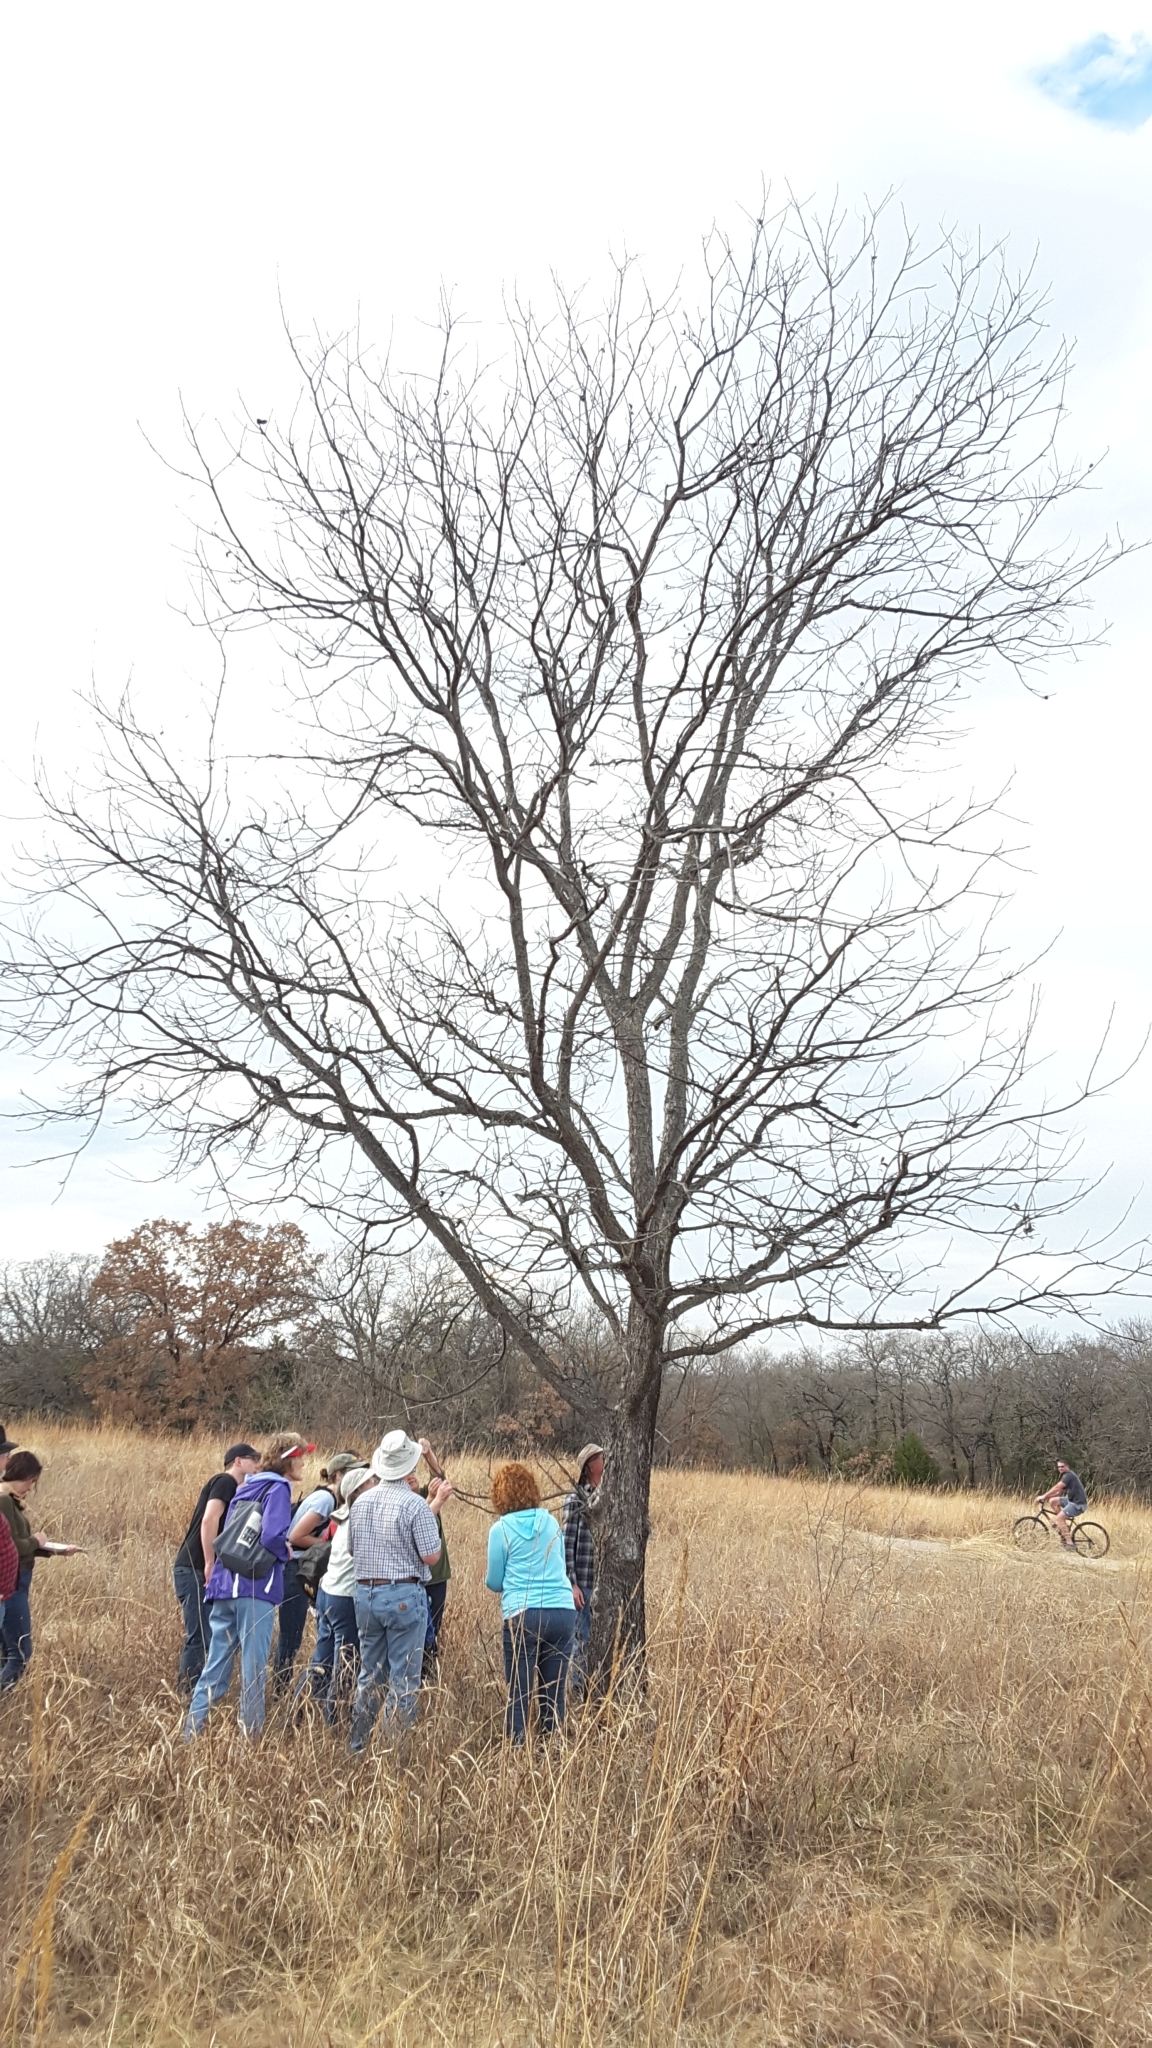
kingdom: Plantae
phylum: Tracheophyta
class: Magnoliopsida
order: Fagales
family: Juglandaceae
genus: Carya
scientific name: Carya illinoinensis
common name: Pecan
